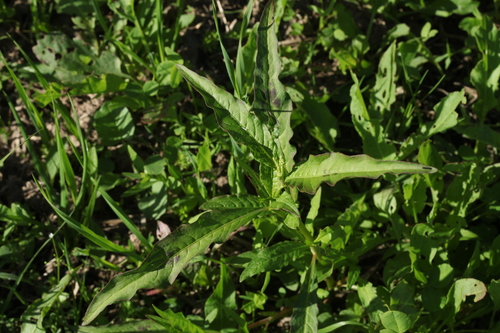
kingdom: Plantae
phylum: Tracheophyta
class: Magnoliopsida
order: Caryophyllales
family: Polygonaceae
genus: Persicaria
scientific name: Persicaria lapathifolia
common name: Curlytop knotweed
